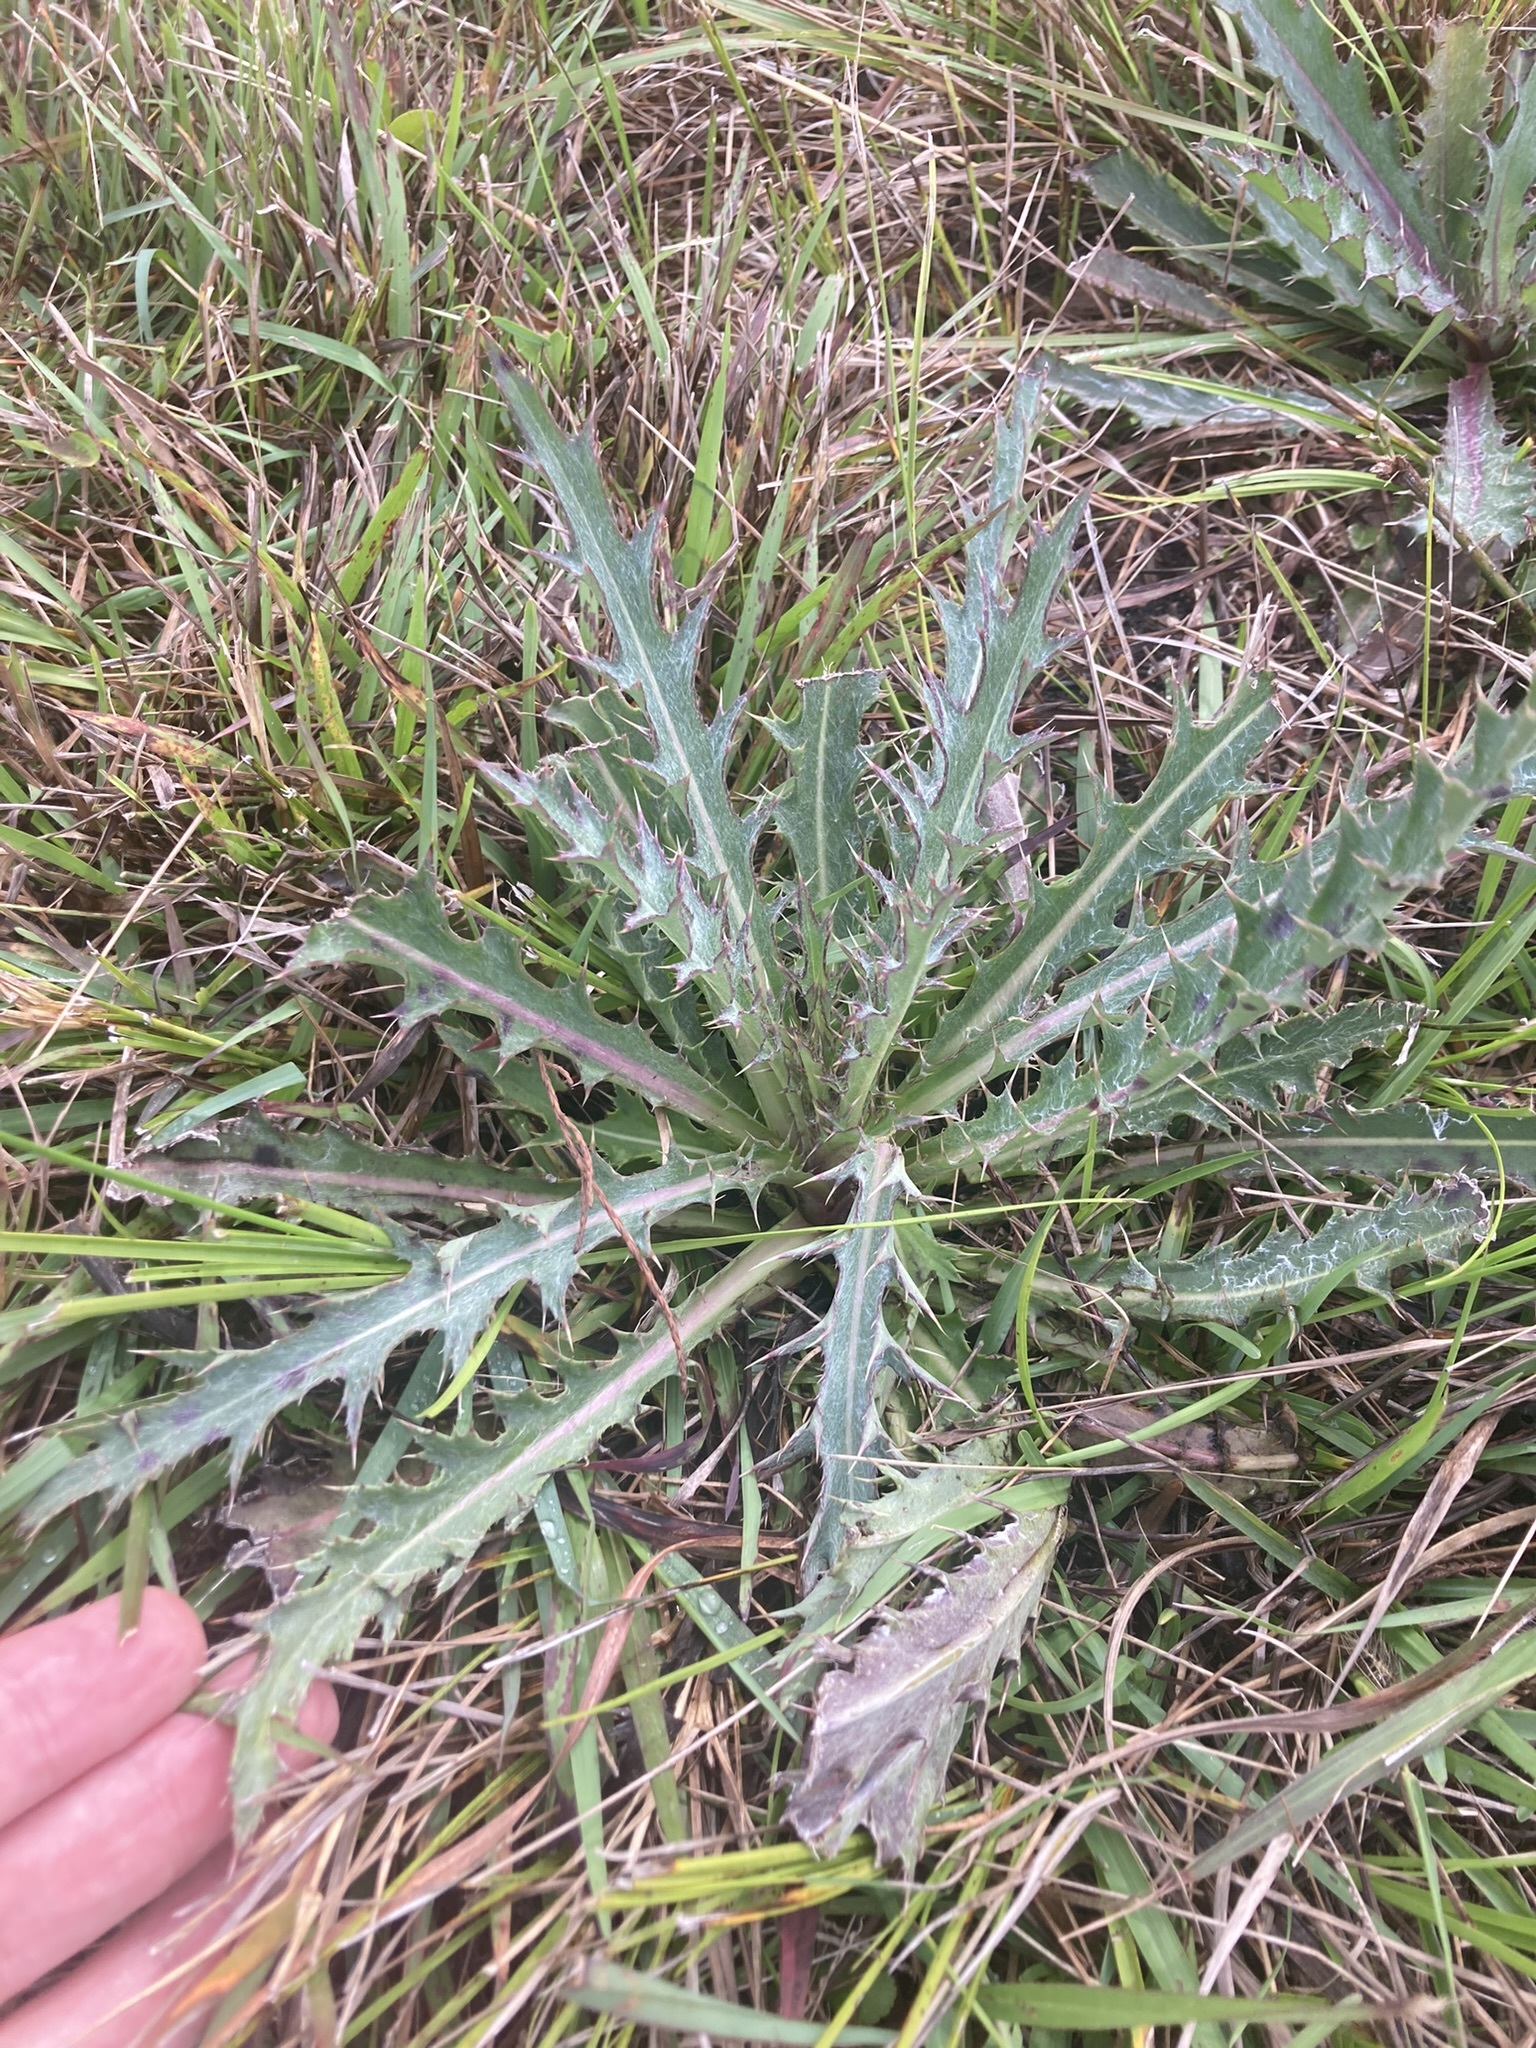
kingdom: Plantae
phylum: Tracheophyta
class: Magnoliopsida
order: Asterales
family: Asteraceae
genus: Cirsium
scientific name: Cirsium horridulum
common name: Bristly thistle
